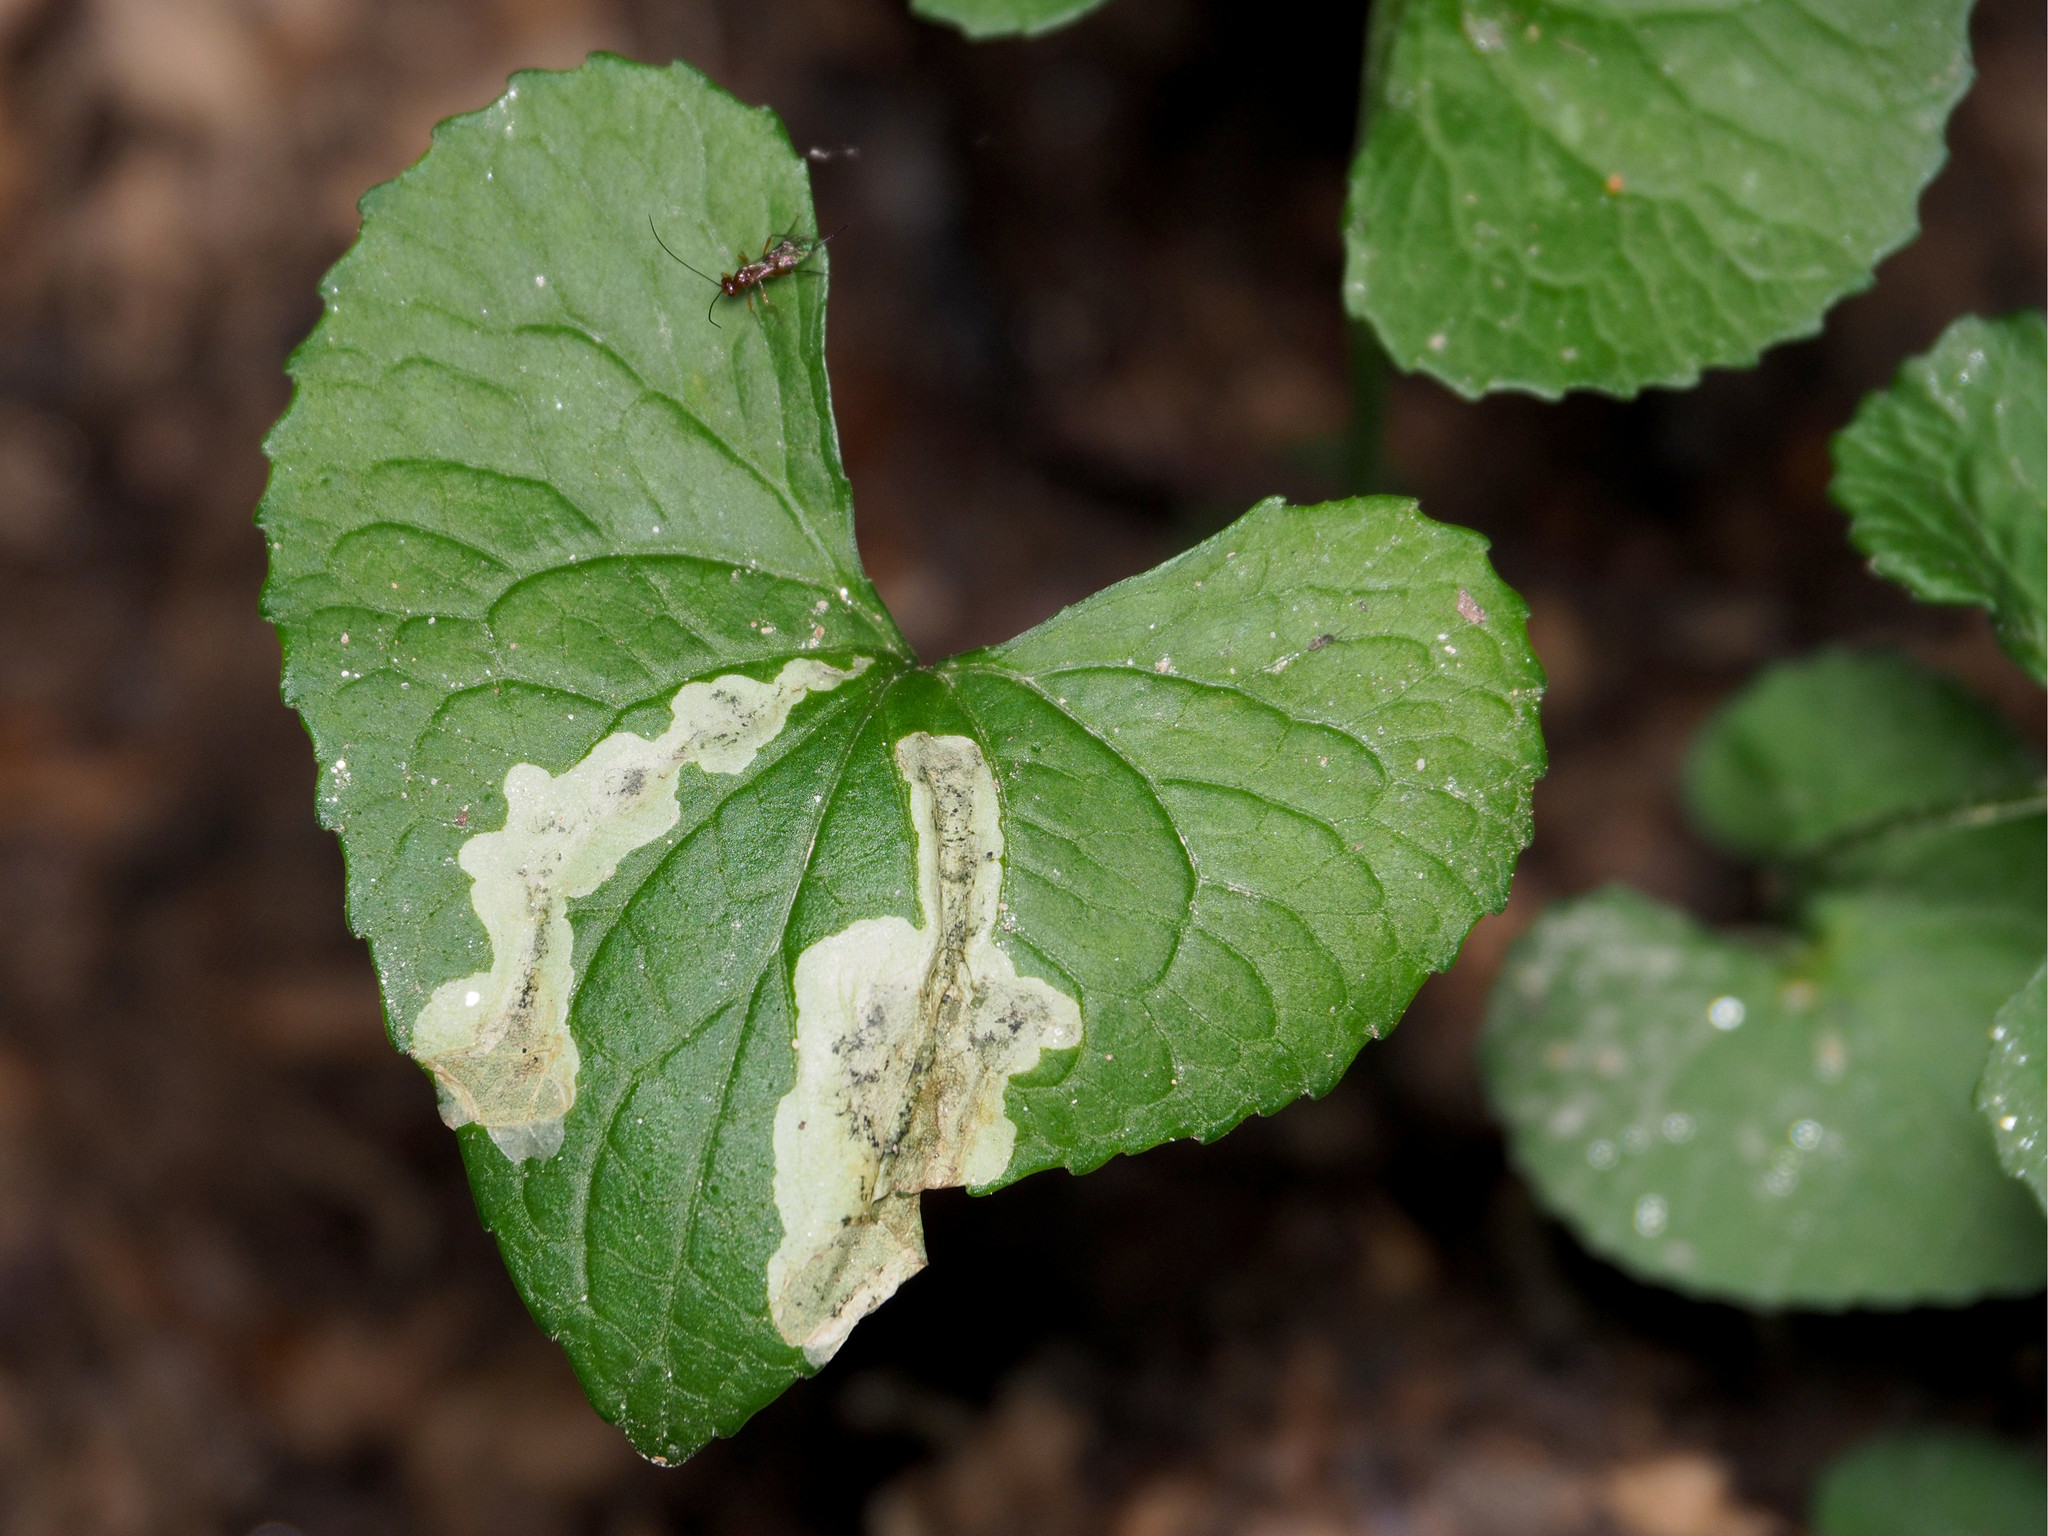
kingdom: Animalia
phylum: Arthropoda
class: Insecta
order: Diptera
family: Agromyzidae
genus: Liriomyza
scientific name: Liriomyza violivora
